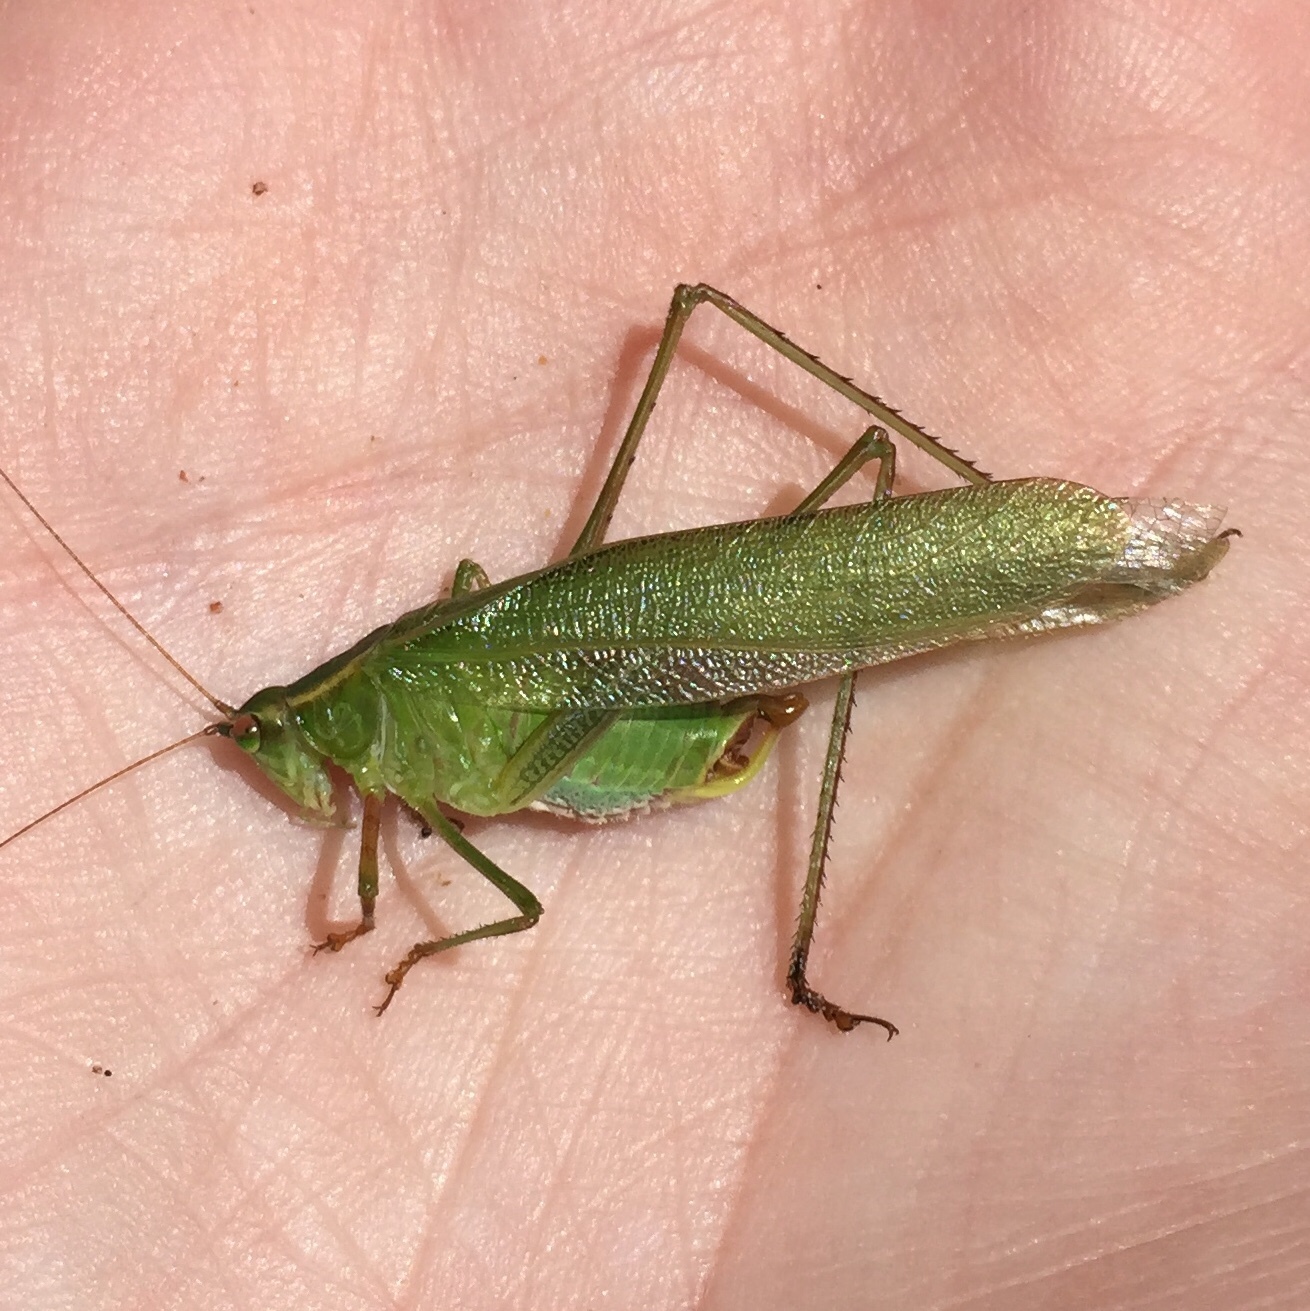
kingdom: Animalia
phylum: Arthropoda
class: Insecta
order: Orthoptera
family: Tettigoniidae
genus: Scudderia
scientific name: Scudderia furcata
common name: Fork-tailed bush katydid
